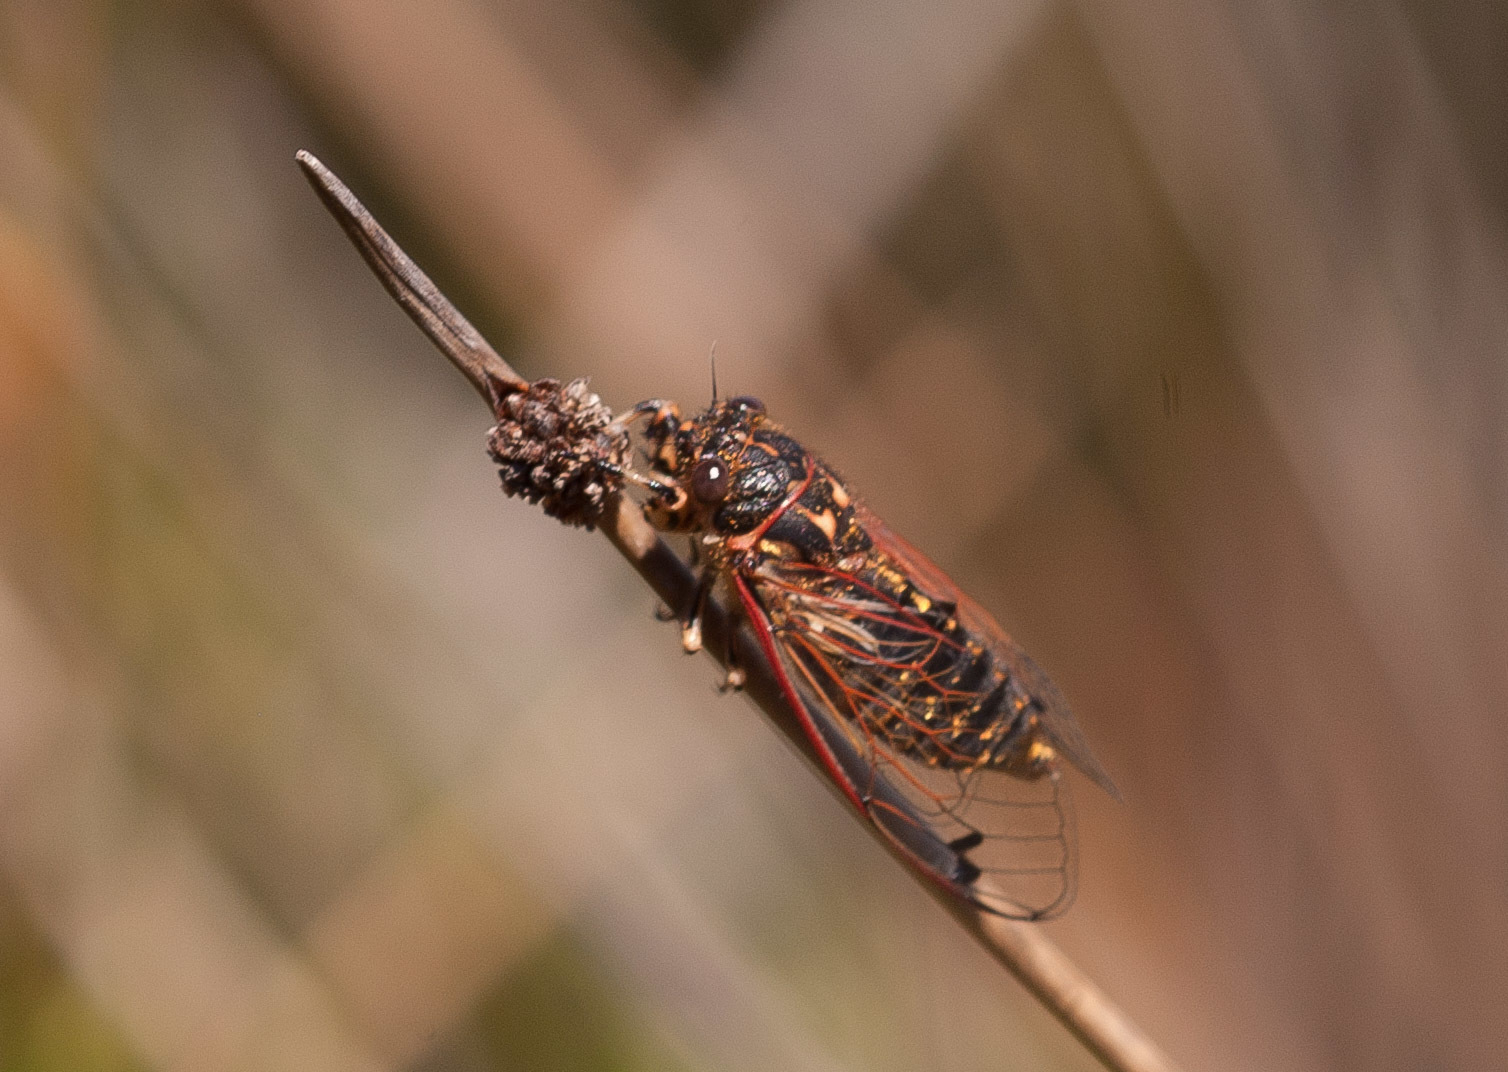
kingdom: Animalia
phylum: Arthropoda
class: Insecta
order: Hemiptera
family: Cicadidae
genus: Diemeniana
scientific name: Diemeniana euronotiana
